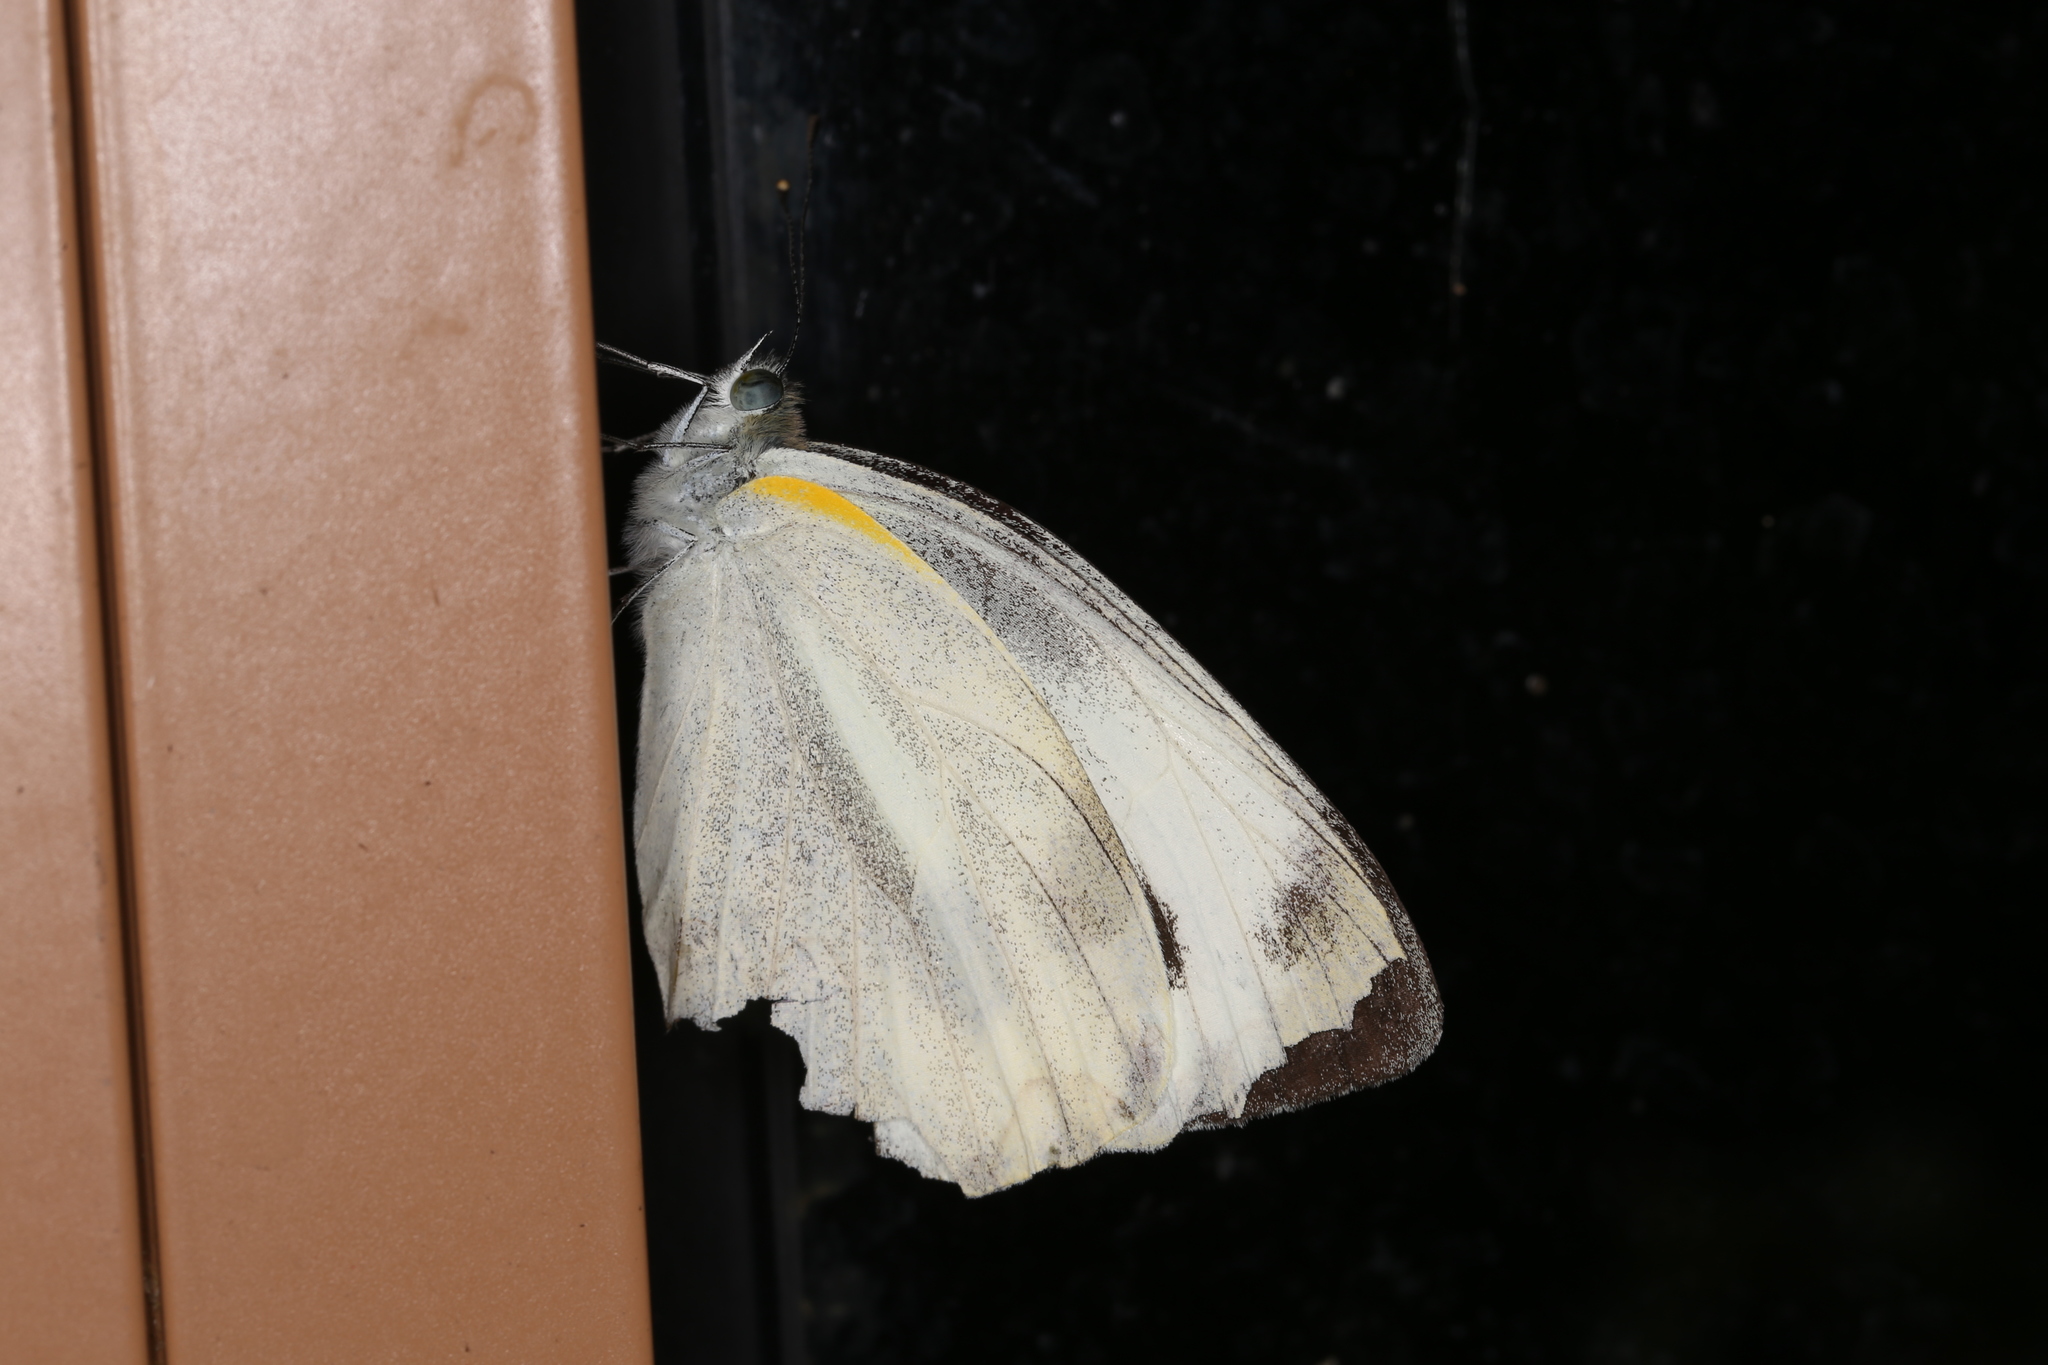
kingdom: Animalia
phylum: Arthropoda
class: Insecta
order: Lepidoptera
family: Pieridae
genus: Pieris
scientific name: Pieris canidia
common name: Indian cabbage white
